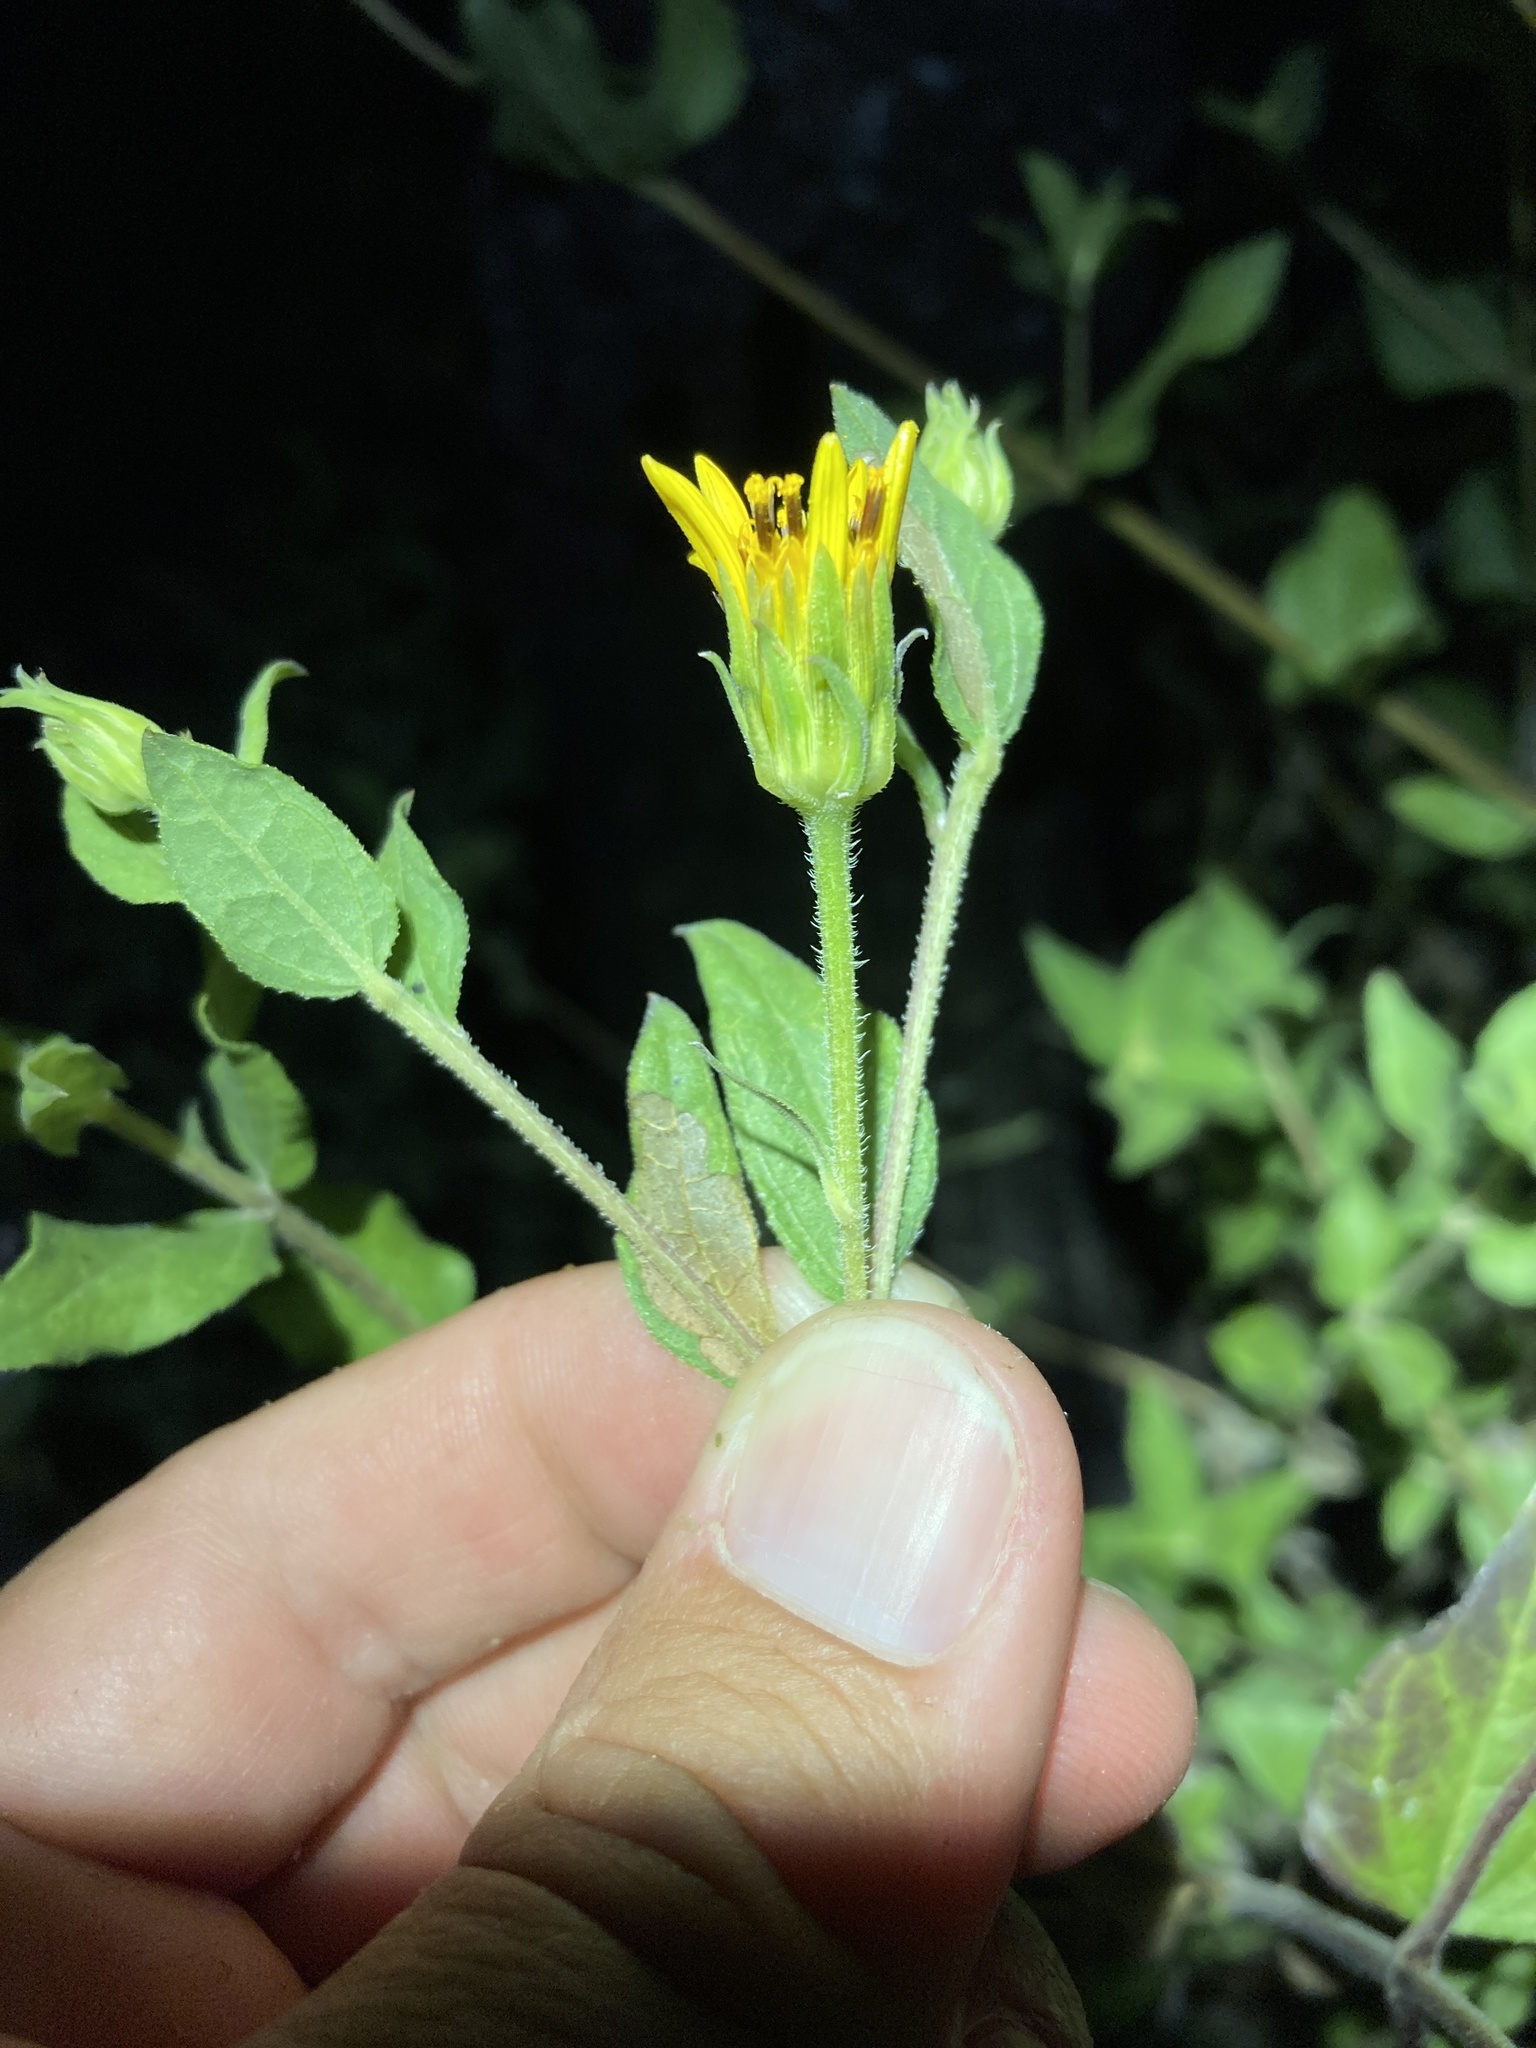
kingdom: Plantae
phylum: Tracheophyta
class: Magnoliopsida
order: Asterales
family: Asteraceae
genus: Aldama
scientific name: Aldama cordifolia
